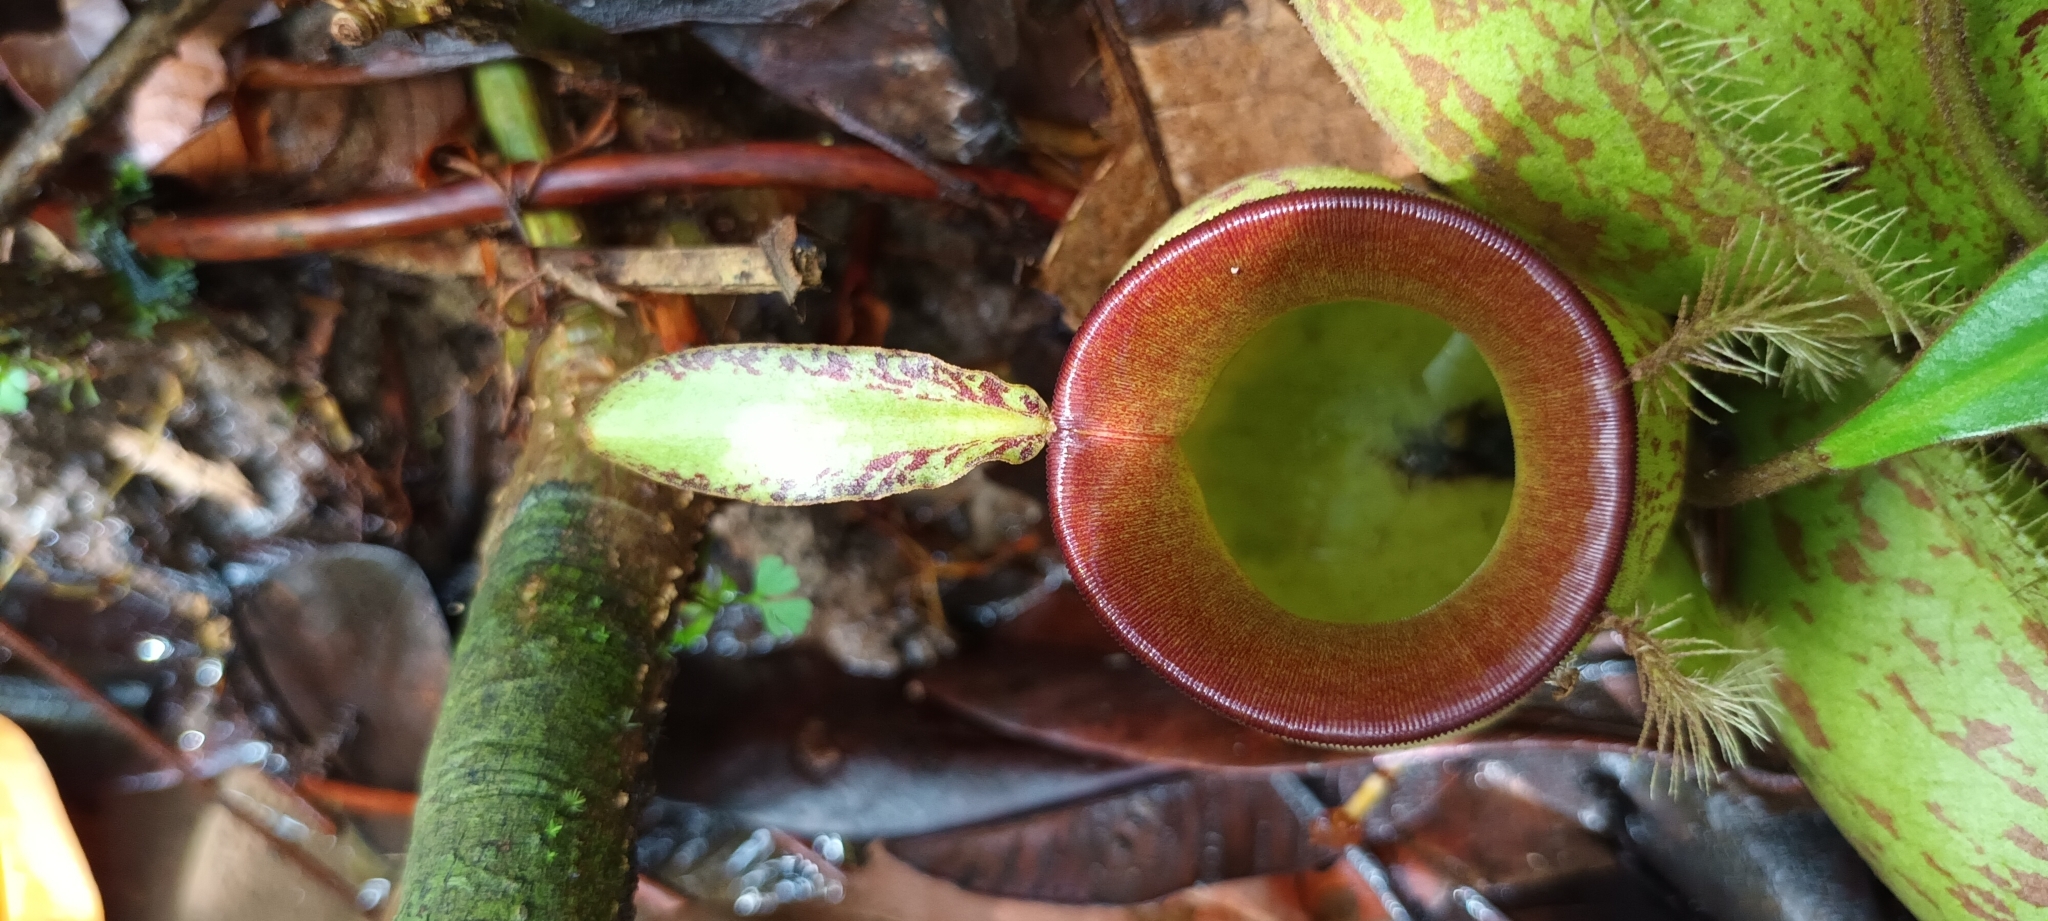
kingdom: Plantae
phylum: Tracheophyta
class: Magnoliopsida
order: Caryophyllales
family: Nepenthaceae
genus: Nepenthes
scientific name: Nepenthes ampullaria
